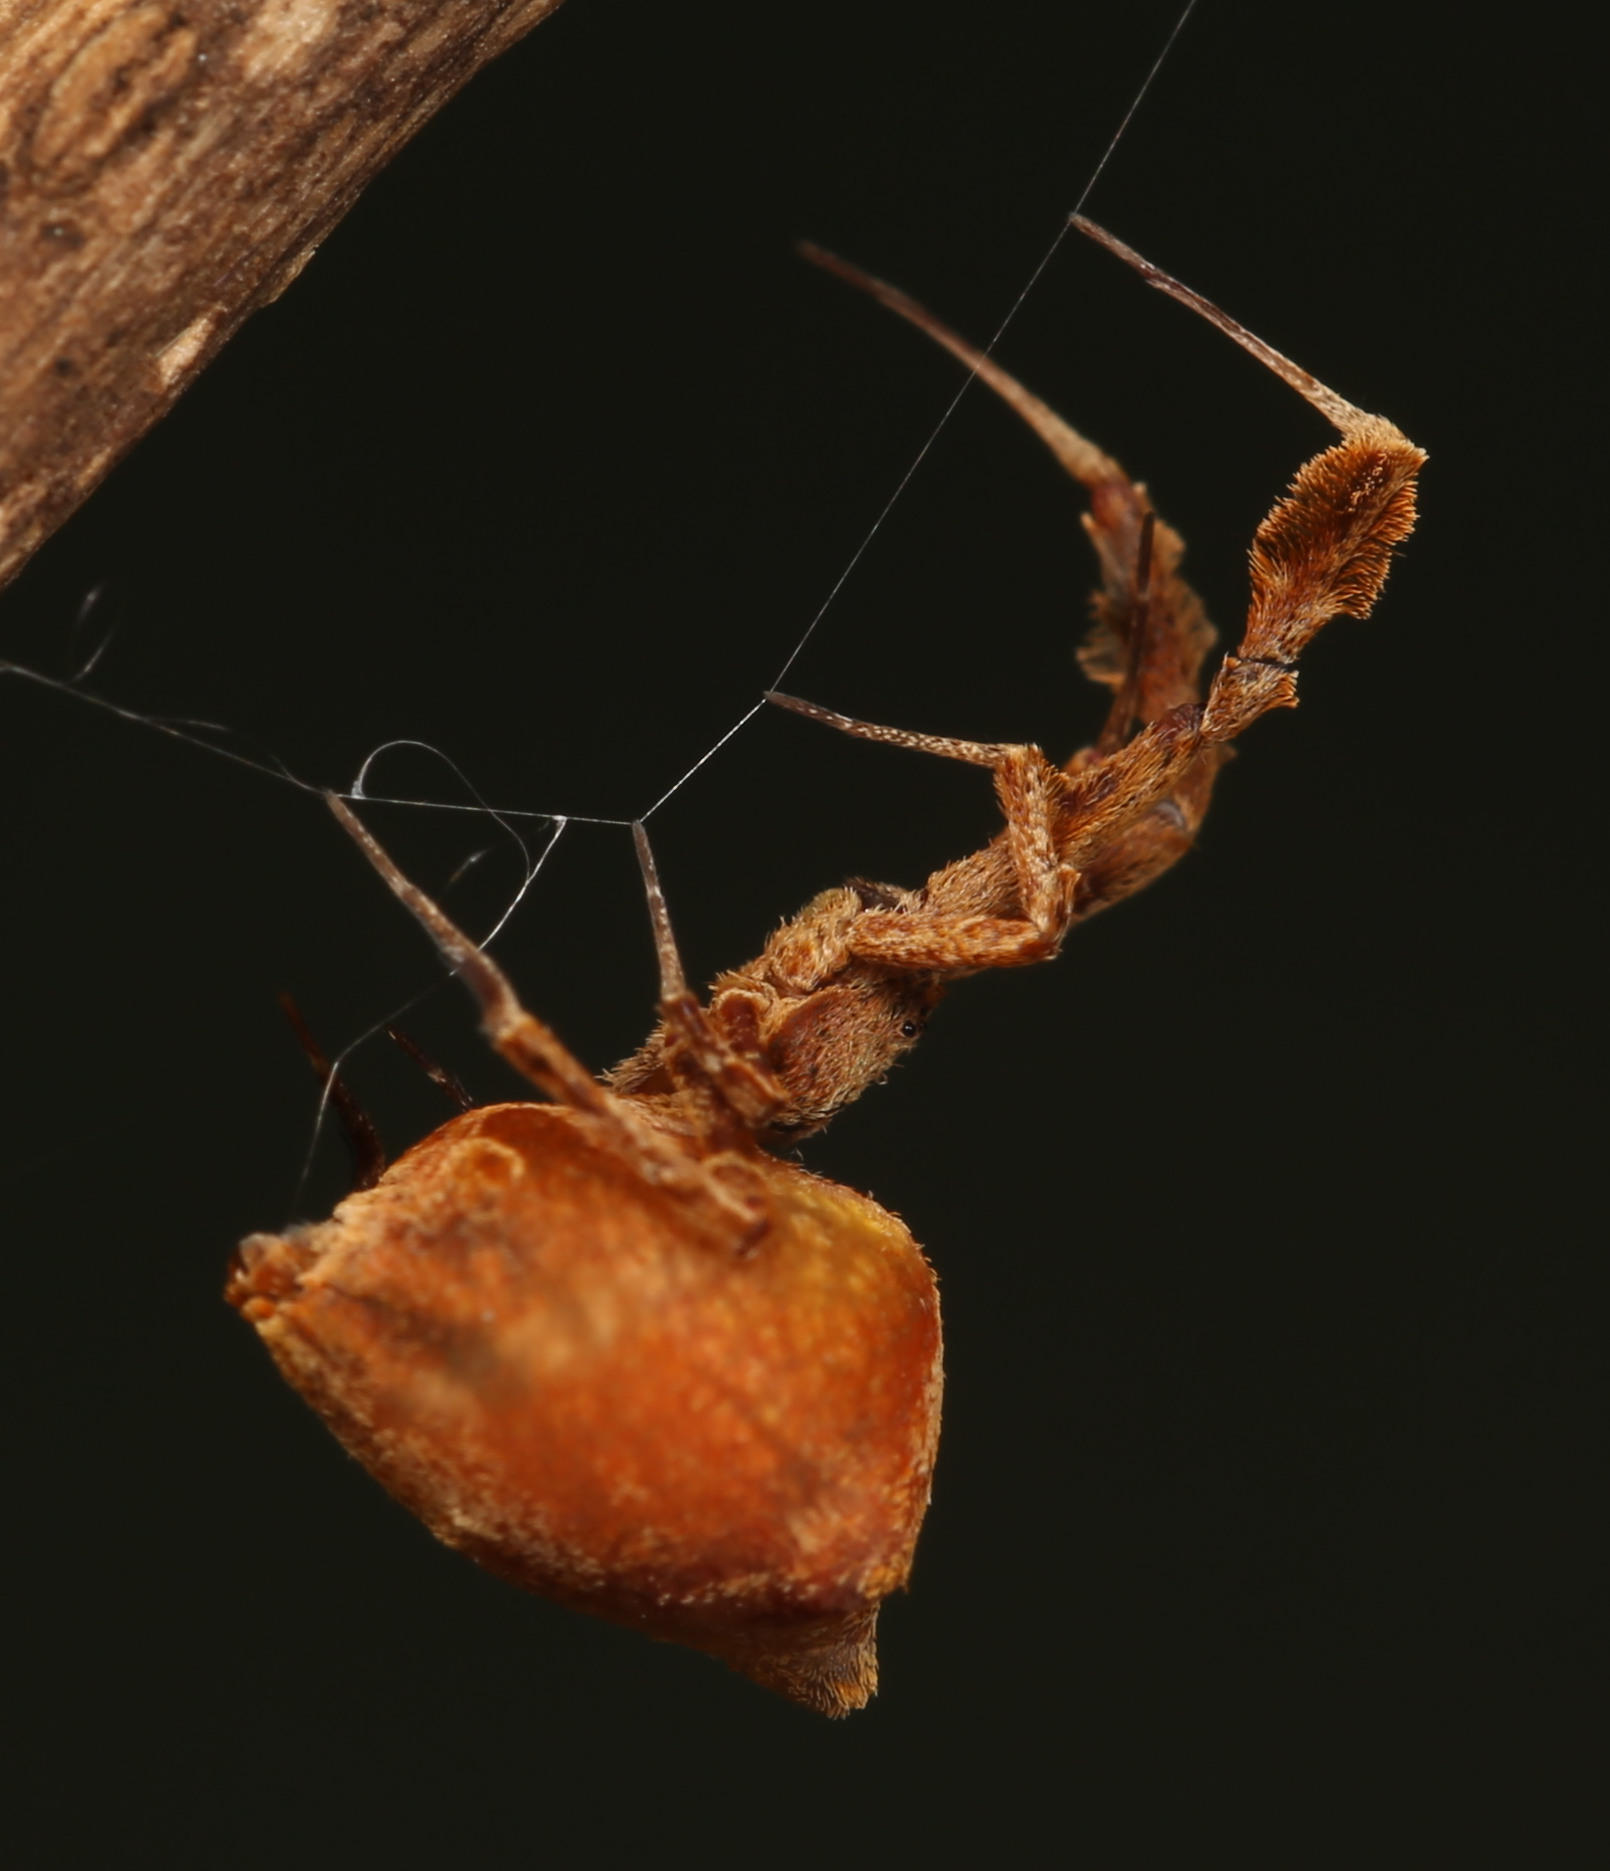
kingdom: Animalia
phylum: Arthropoda
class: Arachnida
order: Araneae
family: Uloboridae
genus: Uloborus
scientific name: Uloborus plumipes
